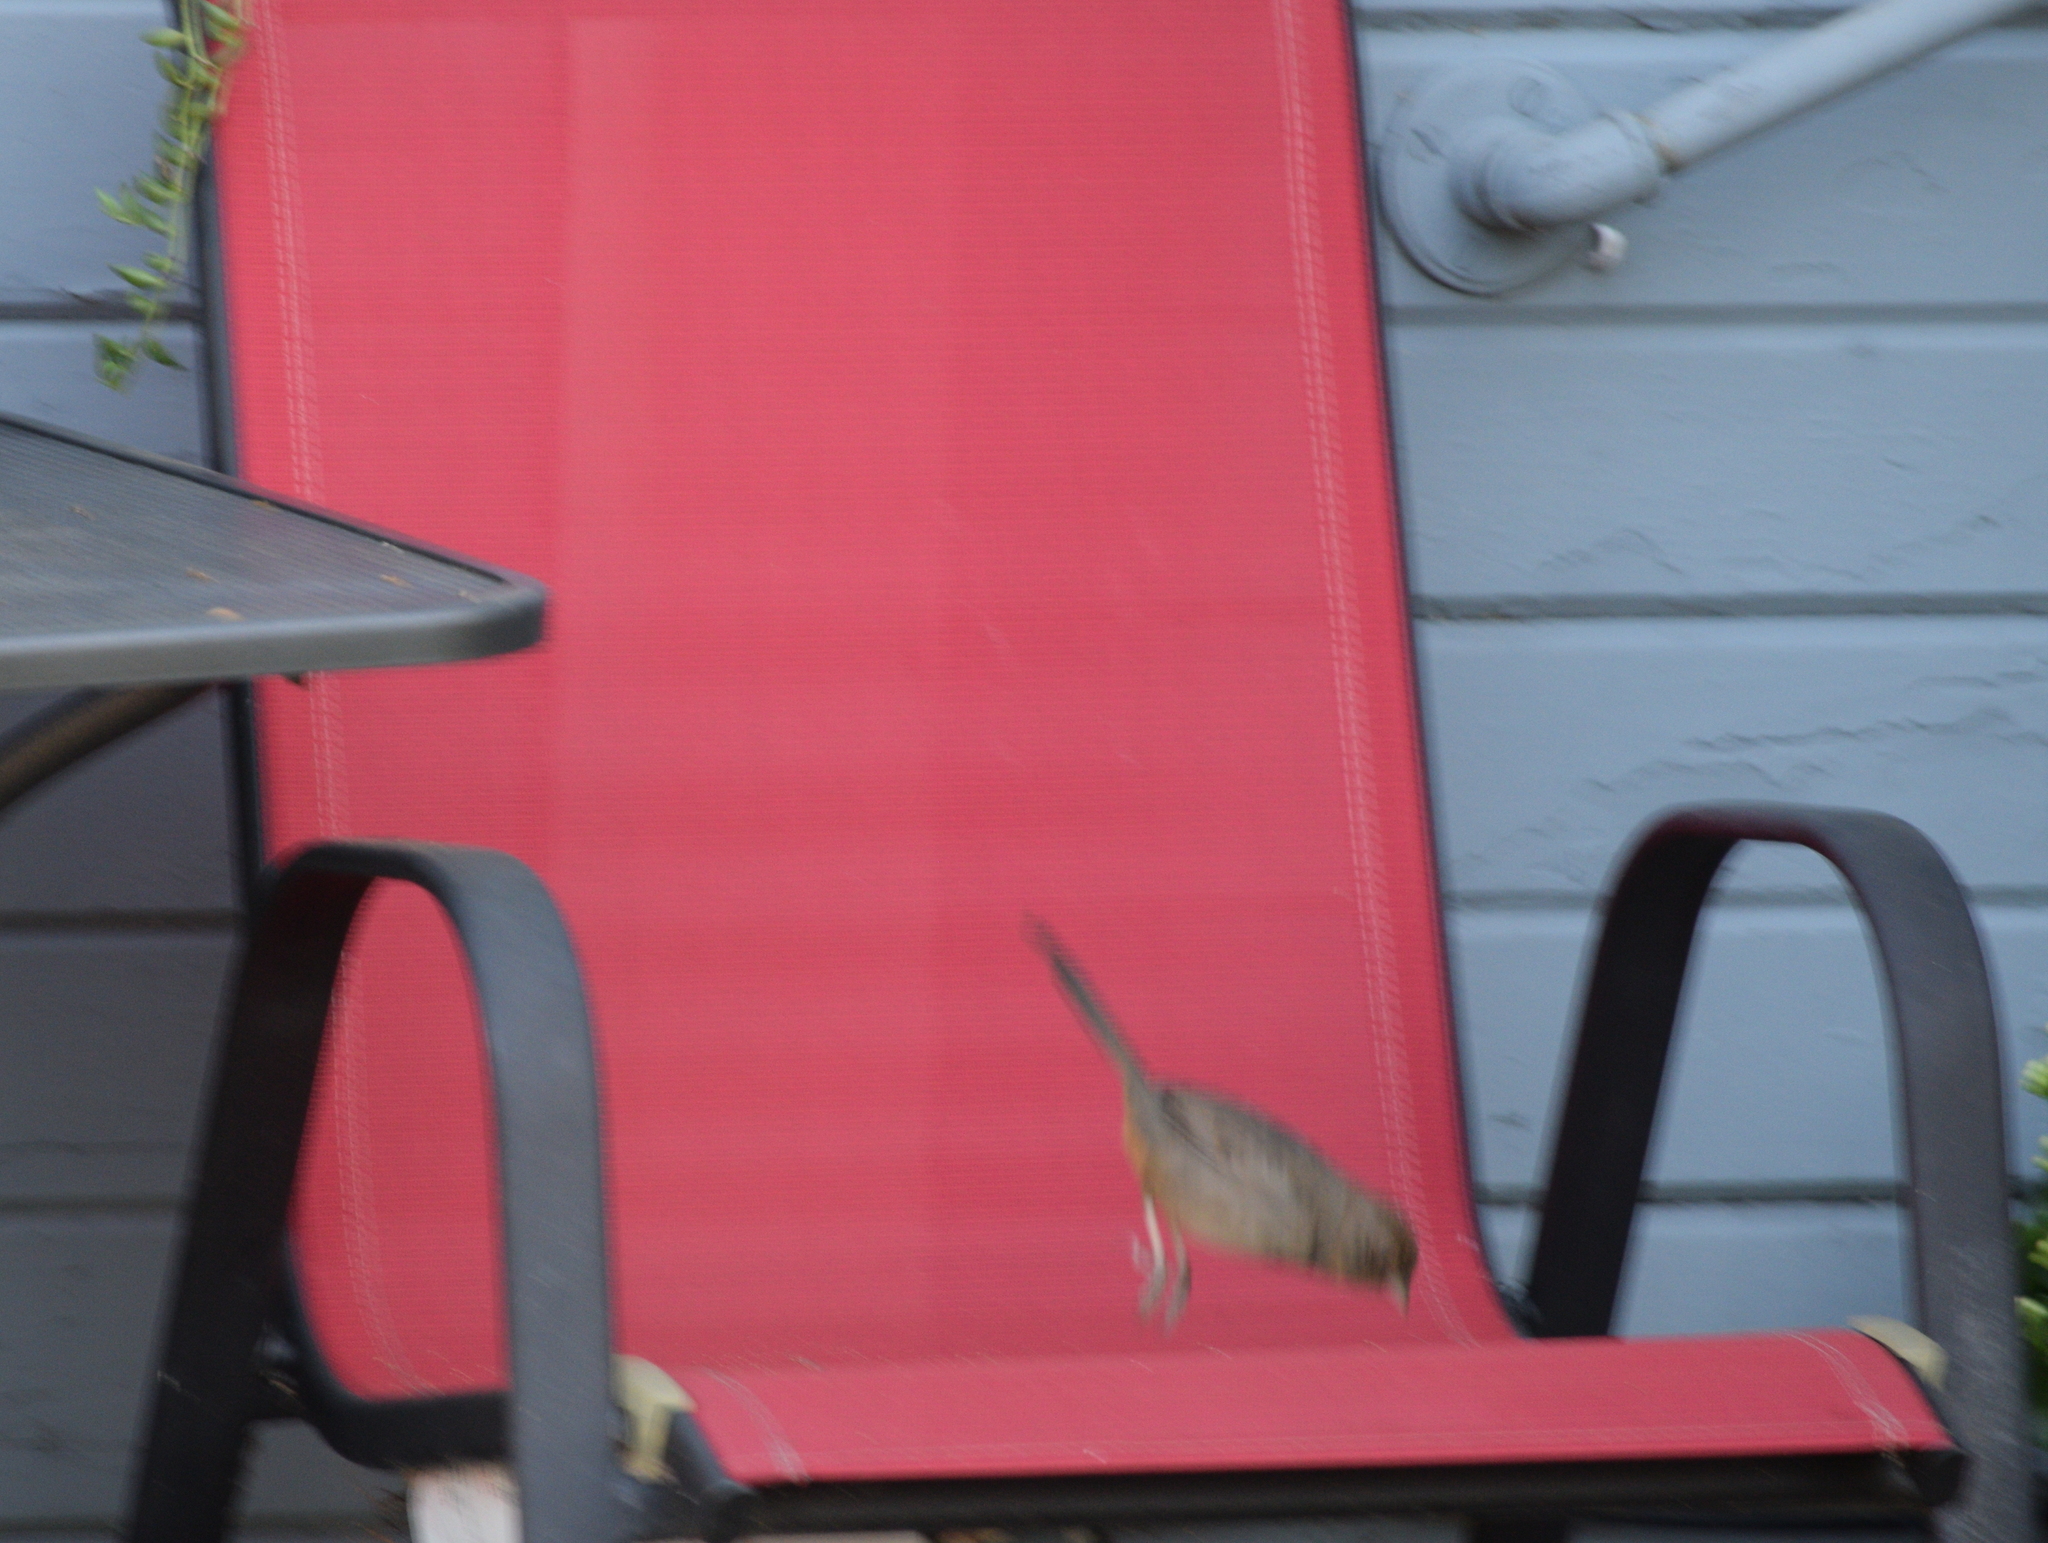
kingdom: Animalia
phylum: Chordata
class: Aves
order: Passeriformes
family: Passerellidae
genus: Melozone
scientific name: Melozone crissalis
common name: California towhee
